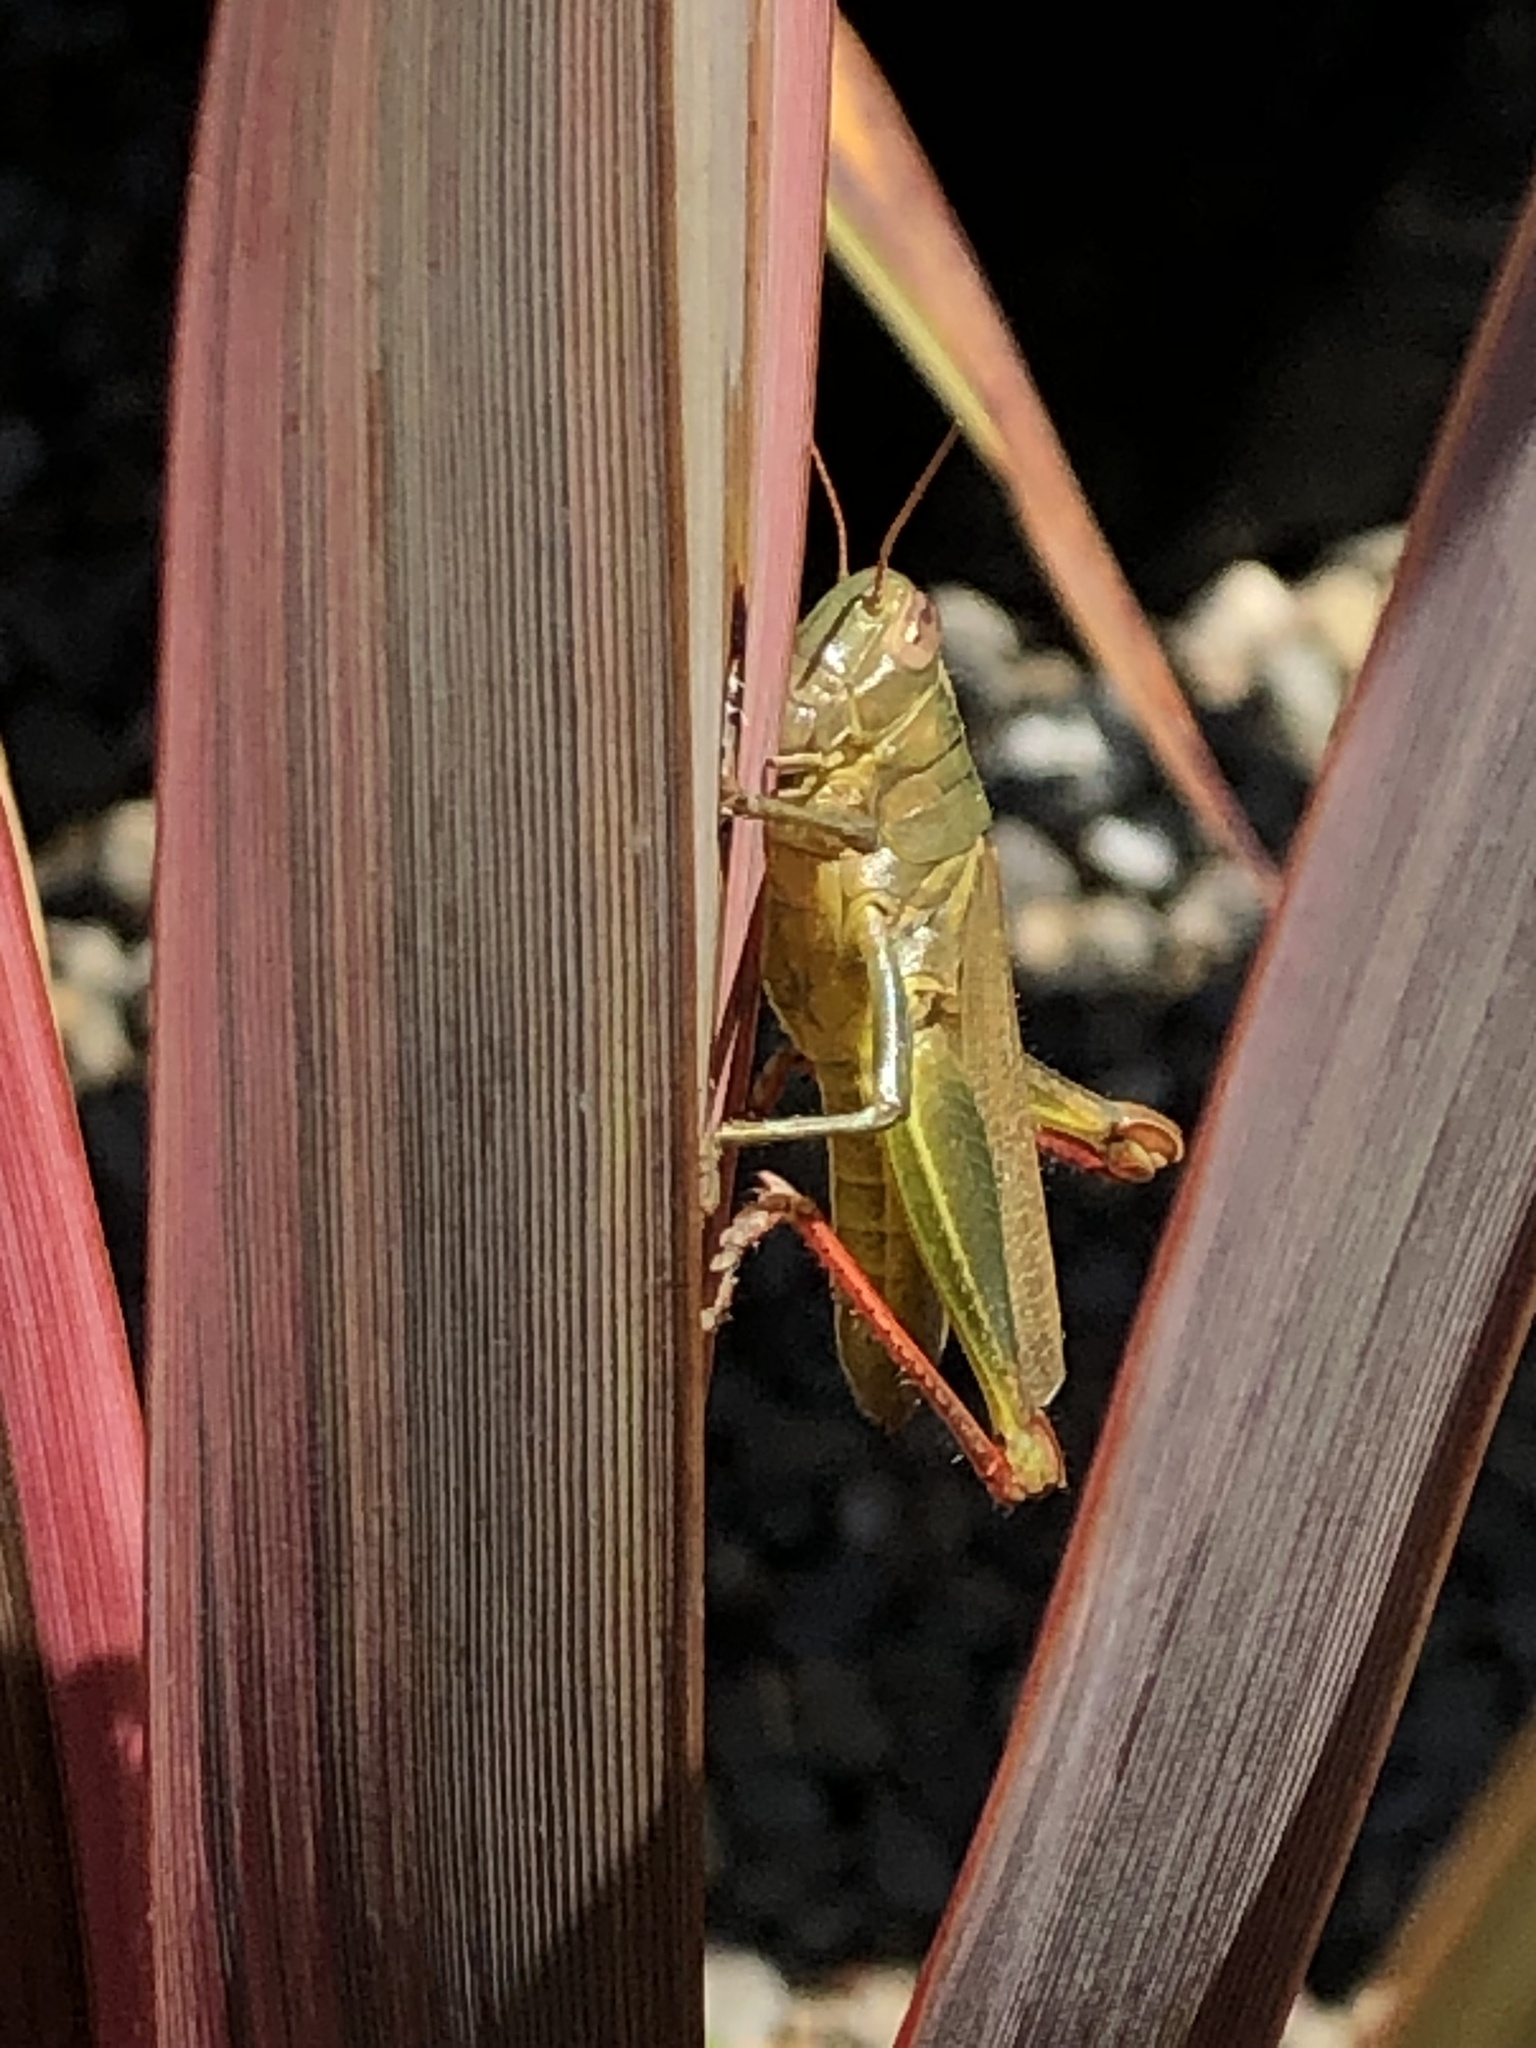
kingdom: Animalia
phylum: Arthropoda
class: Insecta
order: Orthoptera
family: Acrididae
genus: Melanoplus
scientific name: Melanoplus yarrowii
